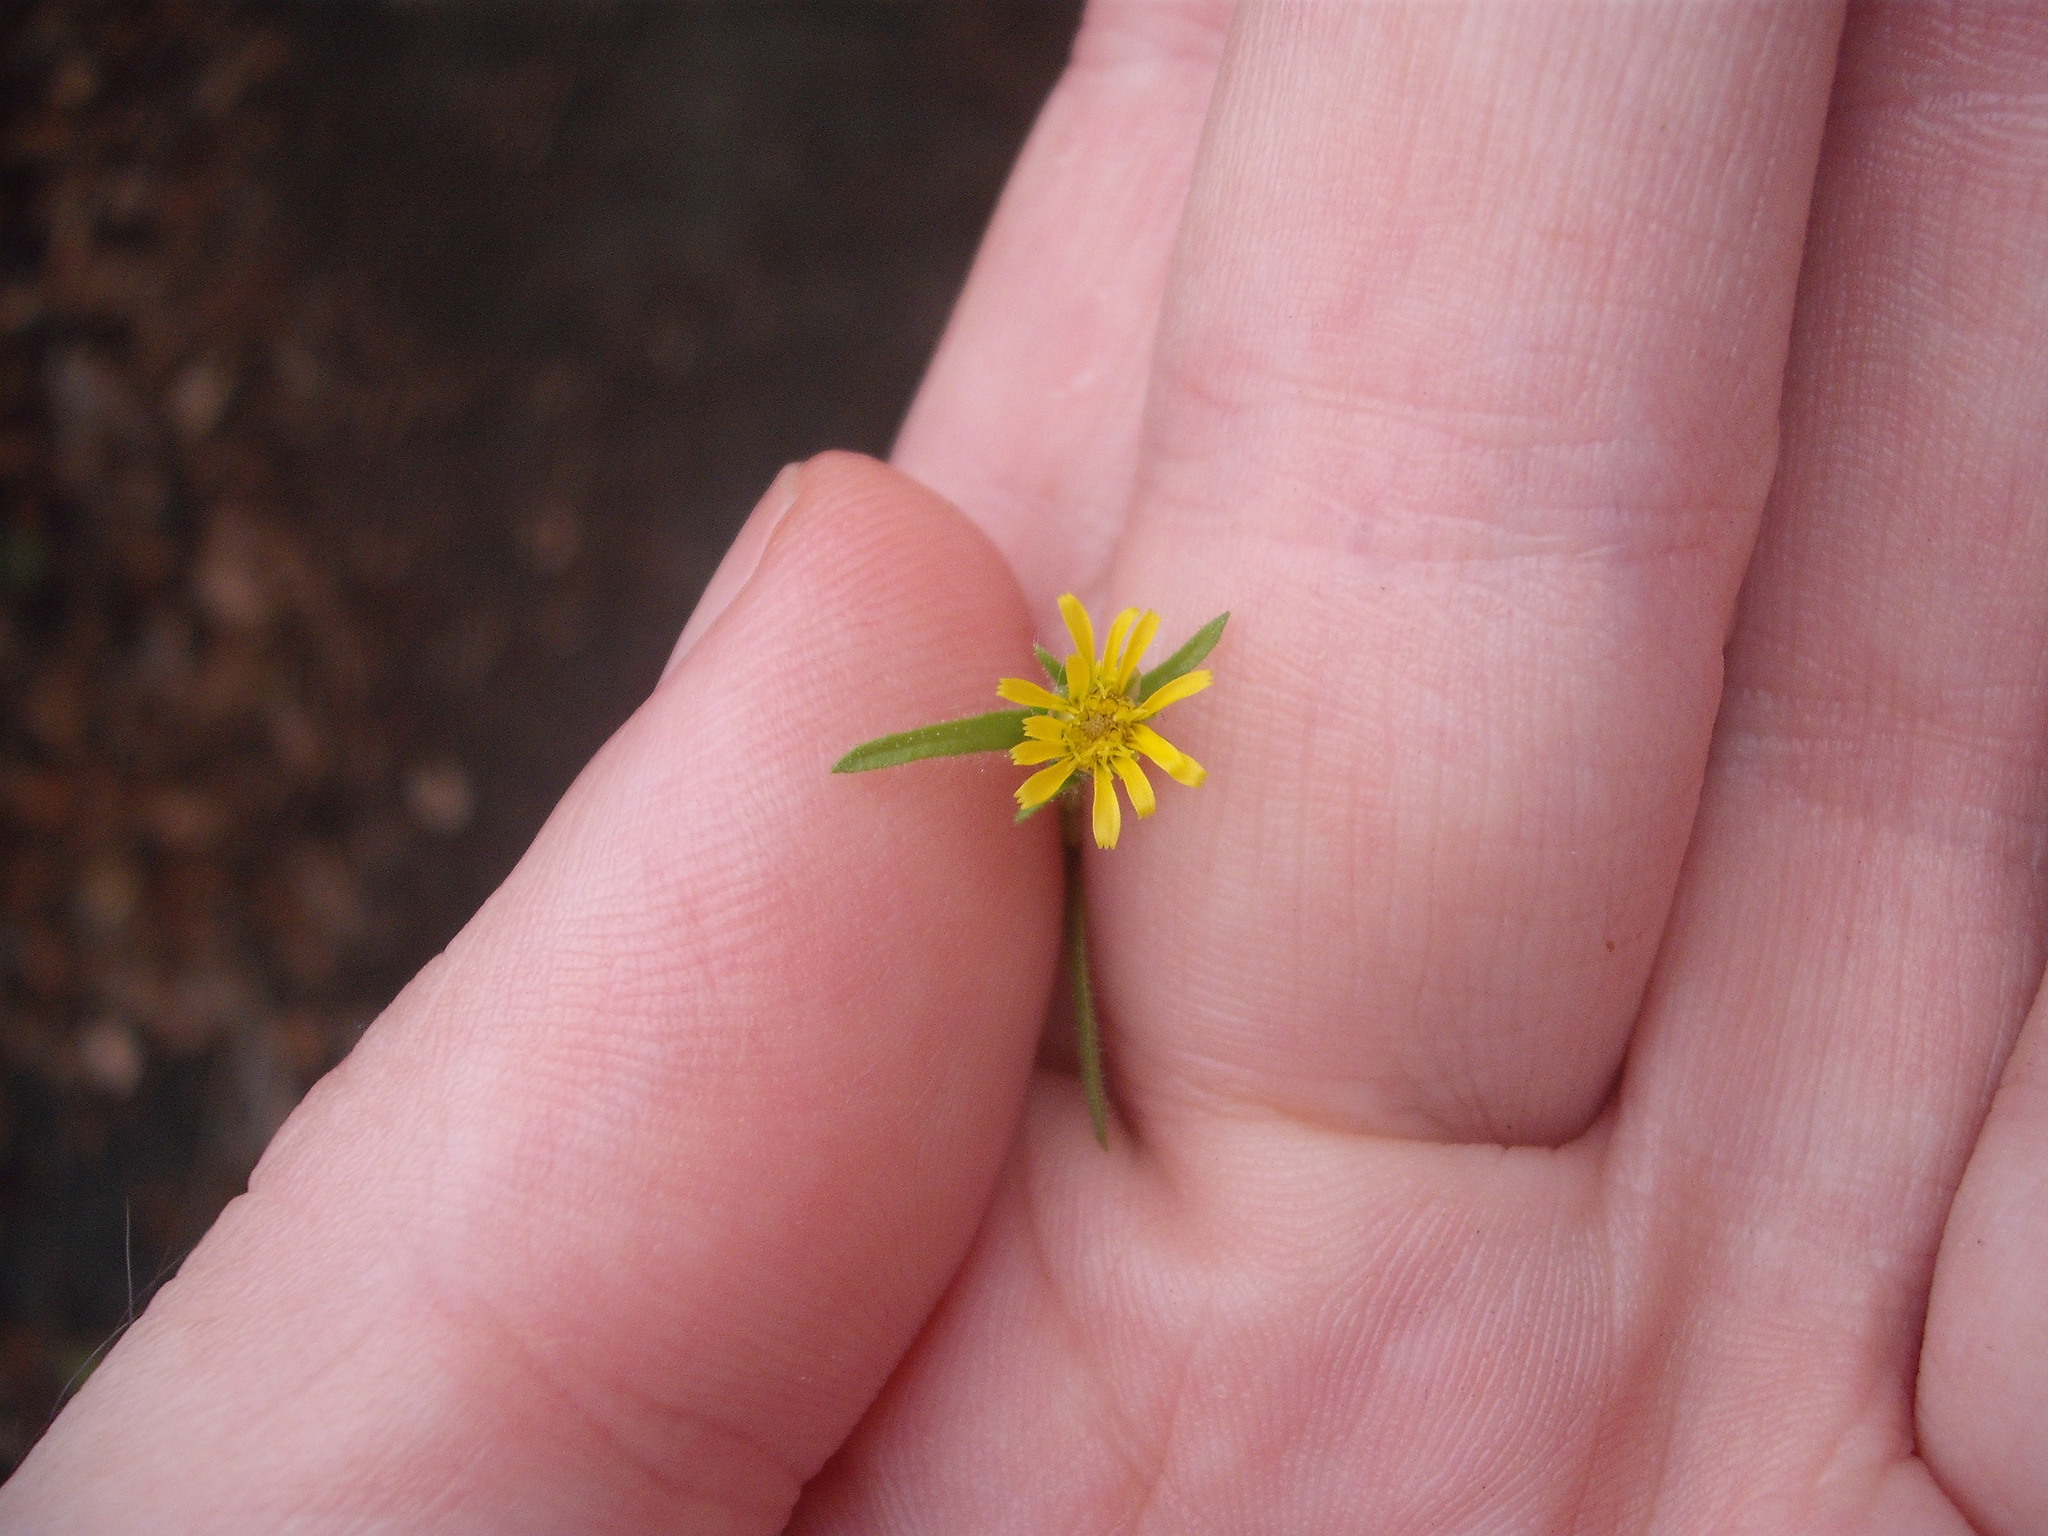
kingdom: Plantae
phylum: Tracheophyta
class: Magnoliopsida
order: Asterales
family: Asteraceae
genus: Dittrichia
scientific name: Dittrichia graveolens
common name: Stinking fleabane
